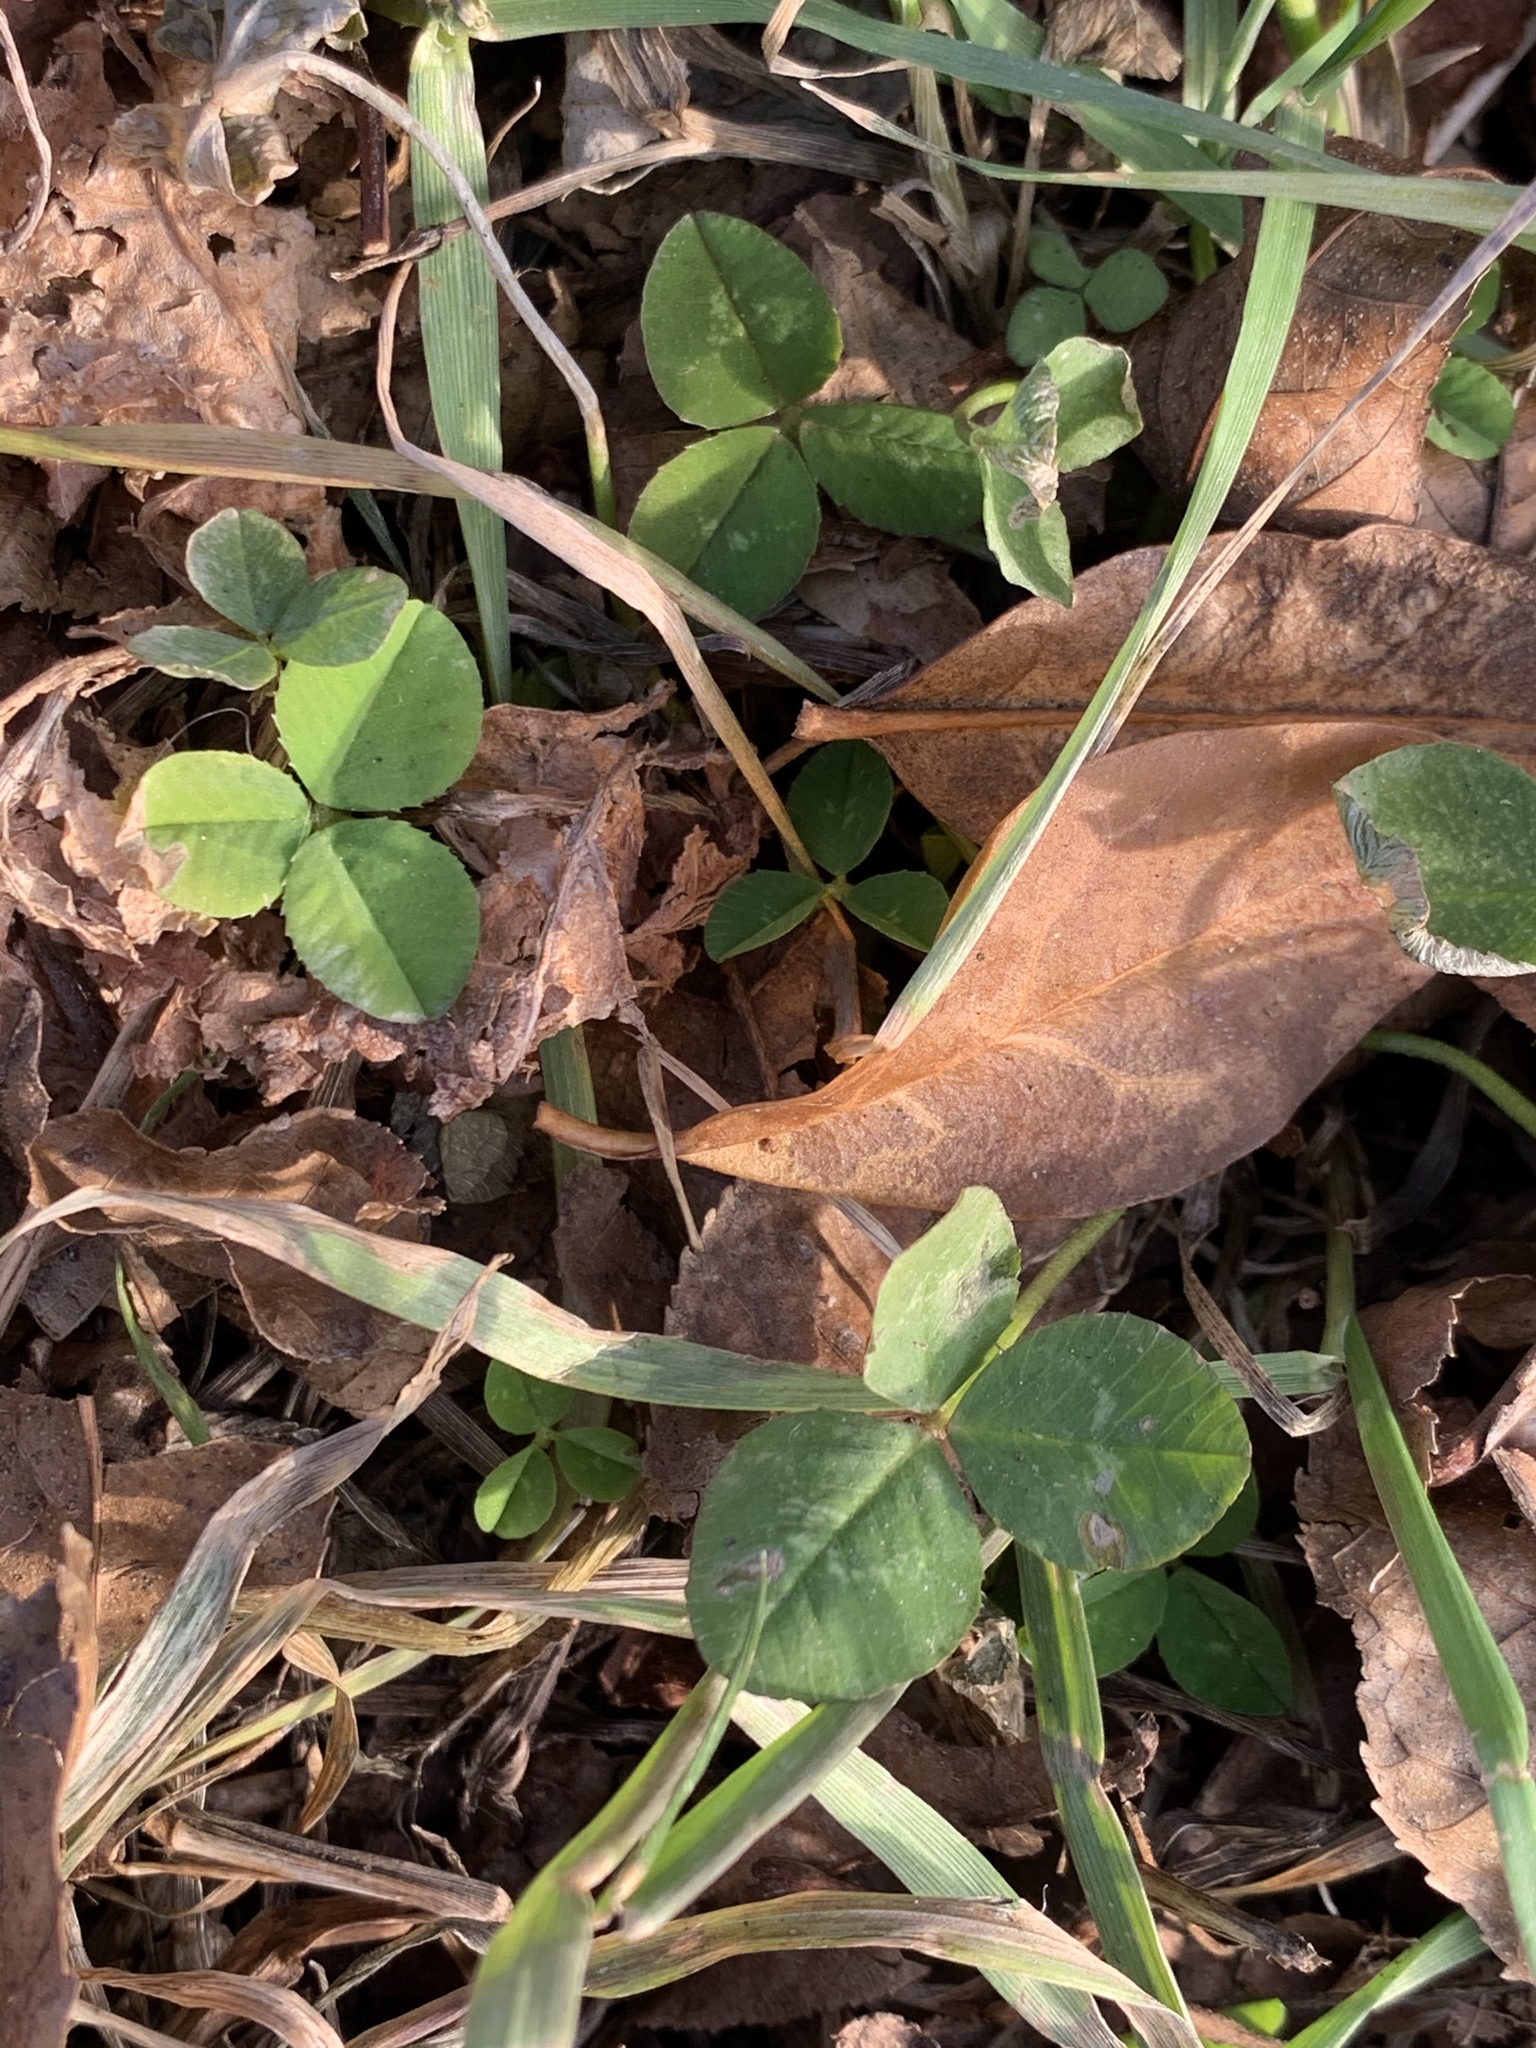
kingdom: Plantae
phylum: Tracheophyta
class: Magnoliopsida
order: Fabales
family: Fabaceae
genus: Trifolium
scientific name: Trifolium repens
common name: White clover
